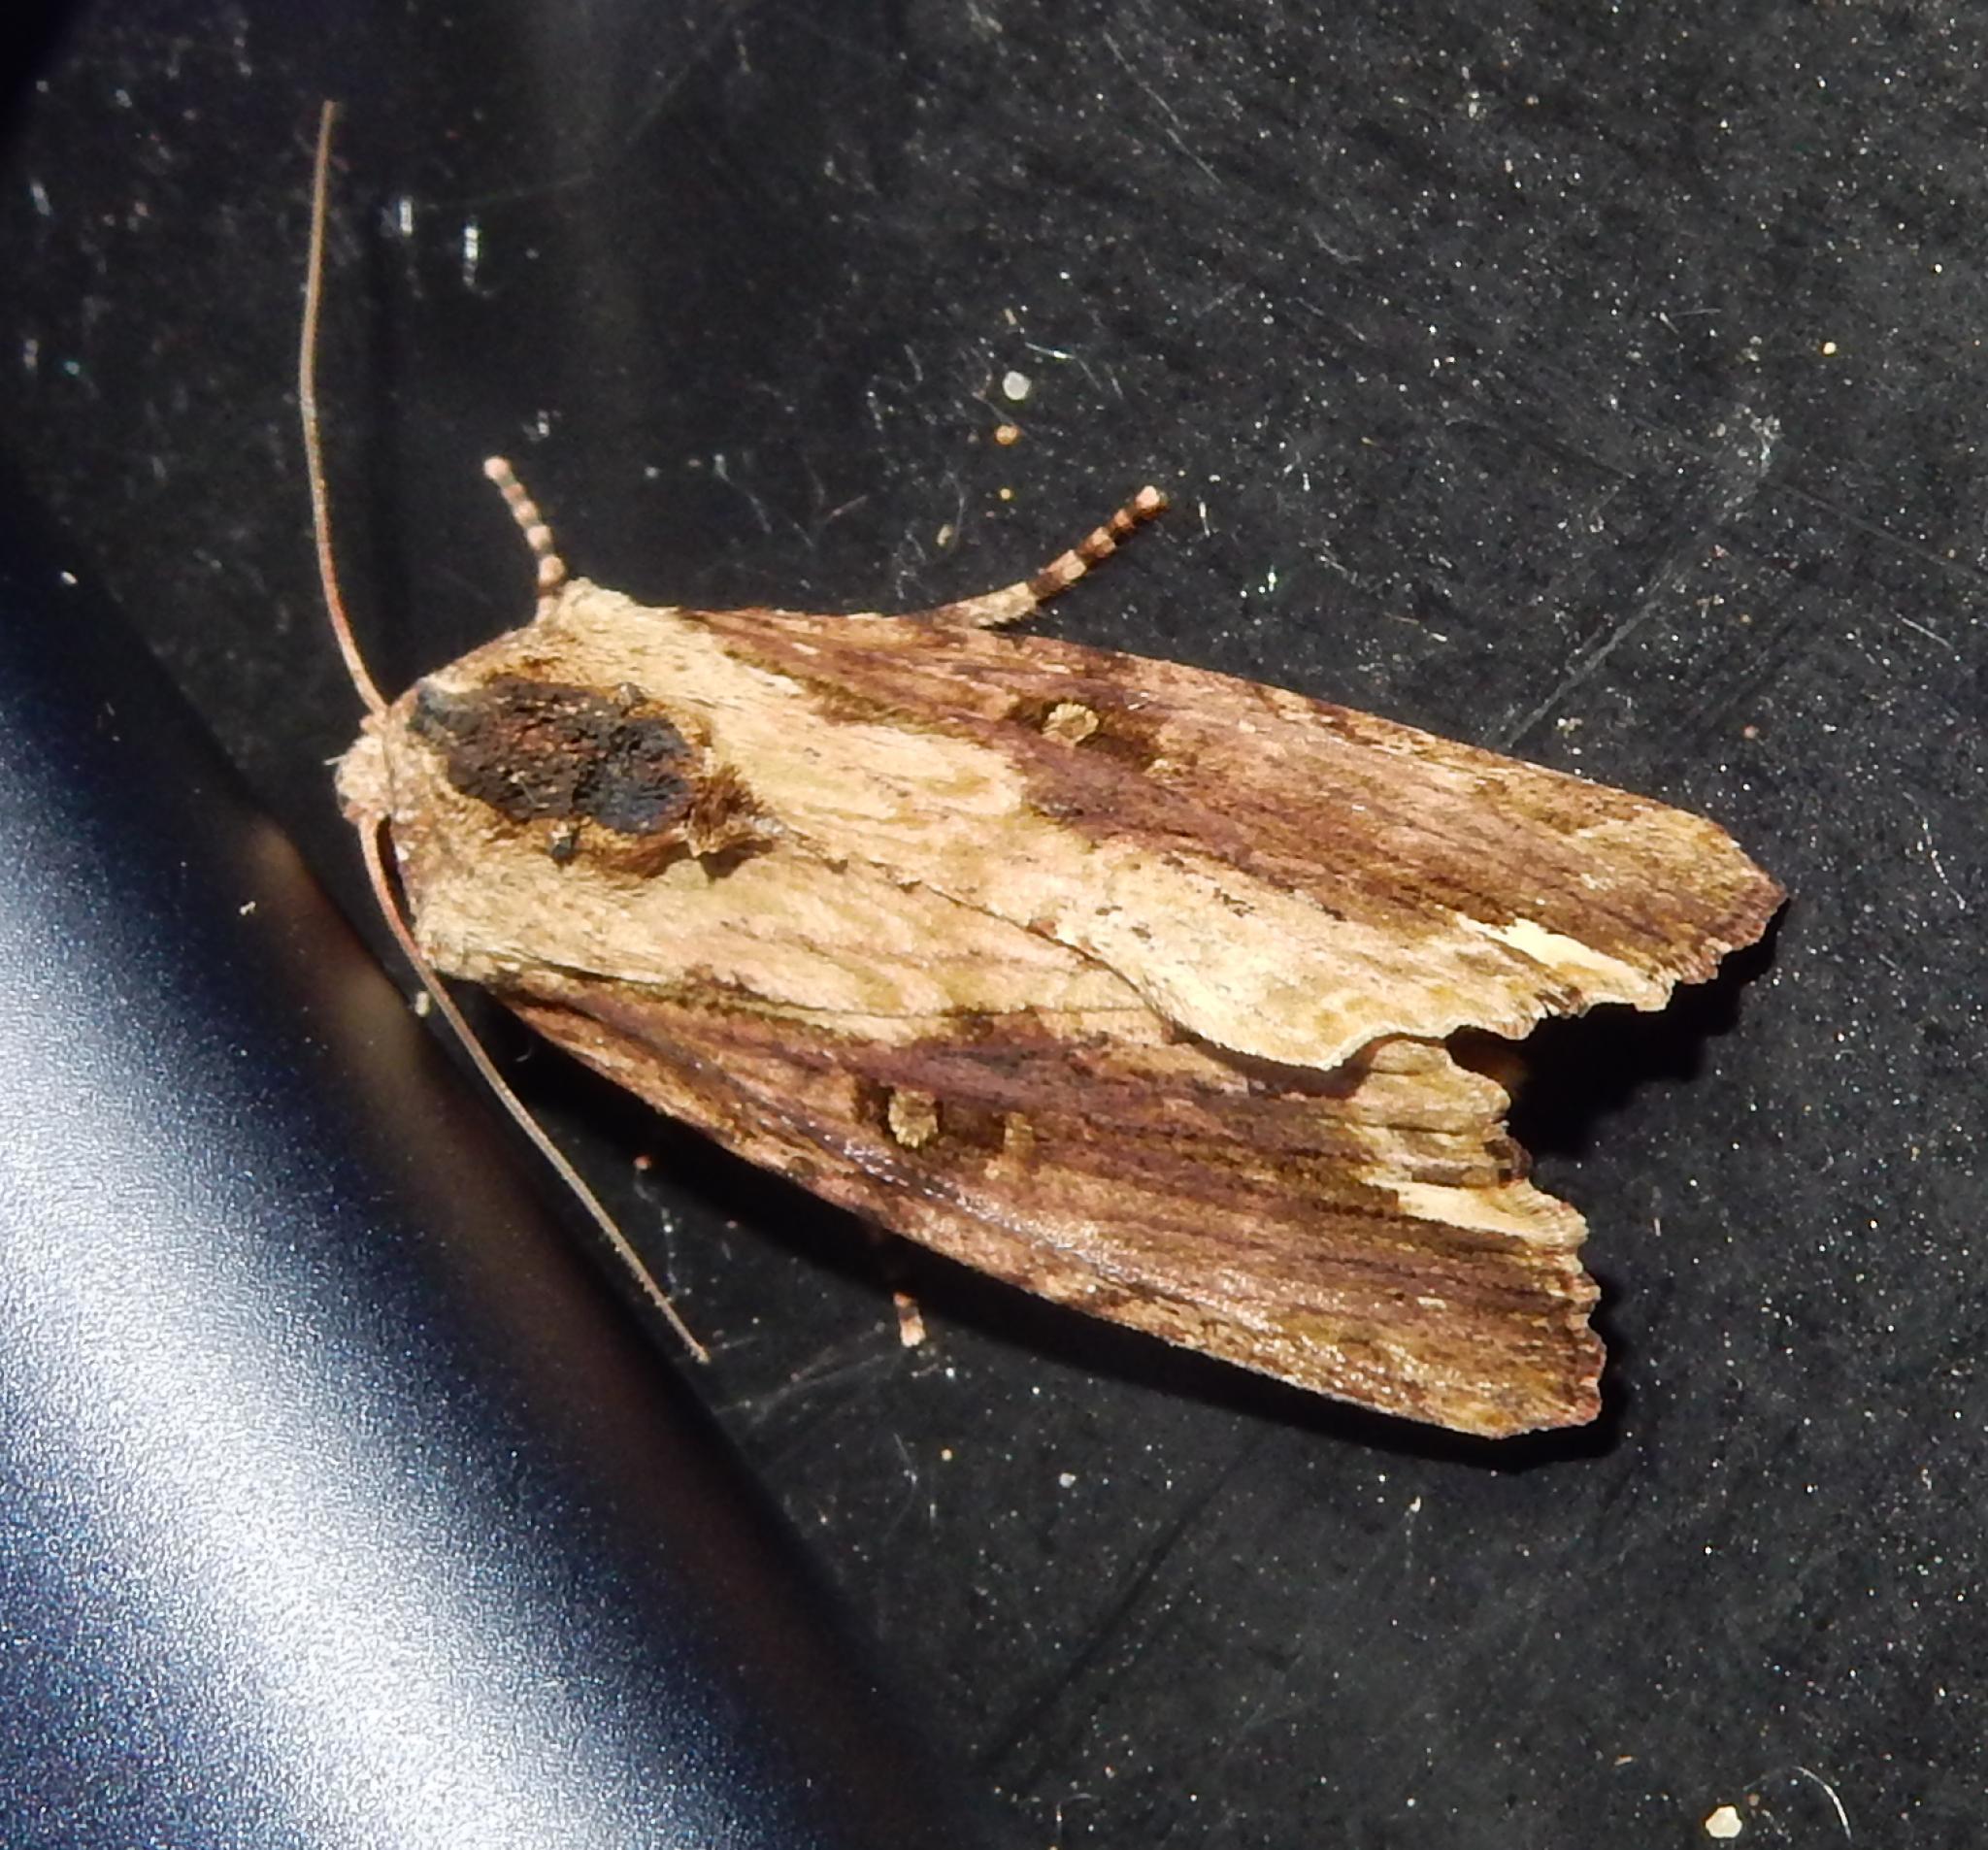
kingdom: Animalia
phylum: Arthropoda
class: Insecta
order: Lepidoptera
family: Noctuidae
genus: Pseudenargia
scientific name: Pseudenargia viettei
